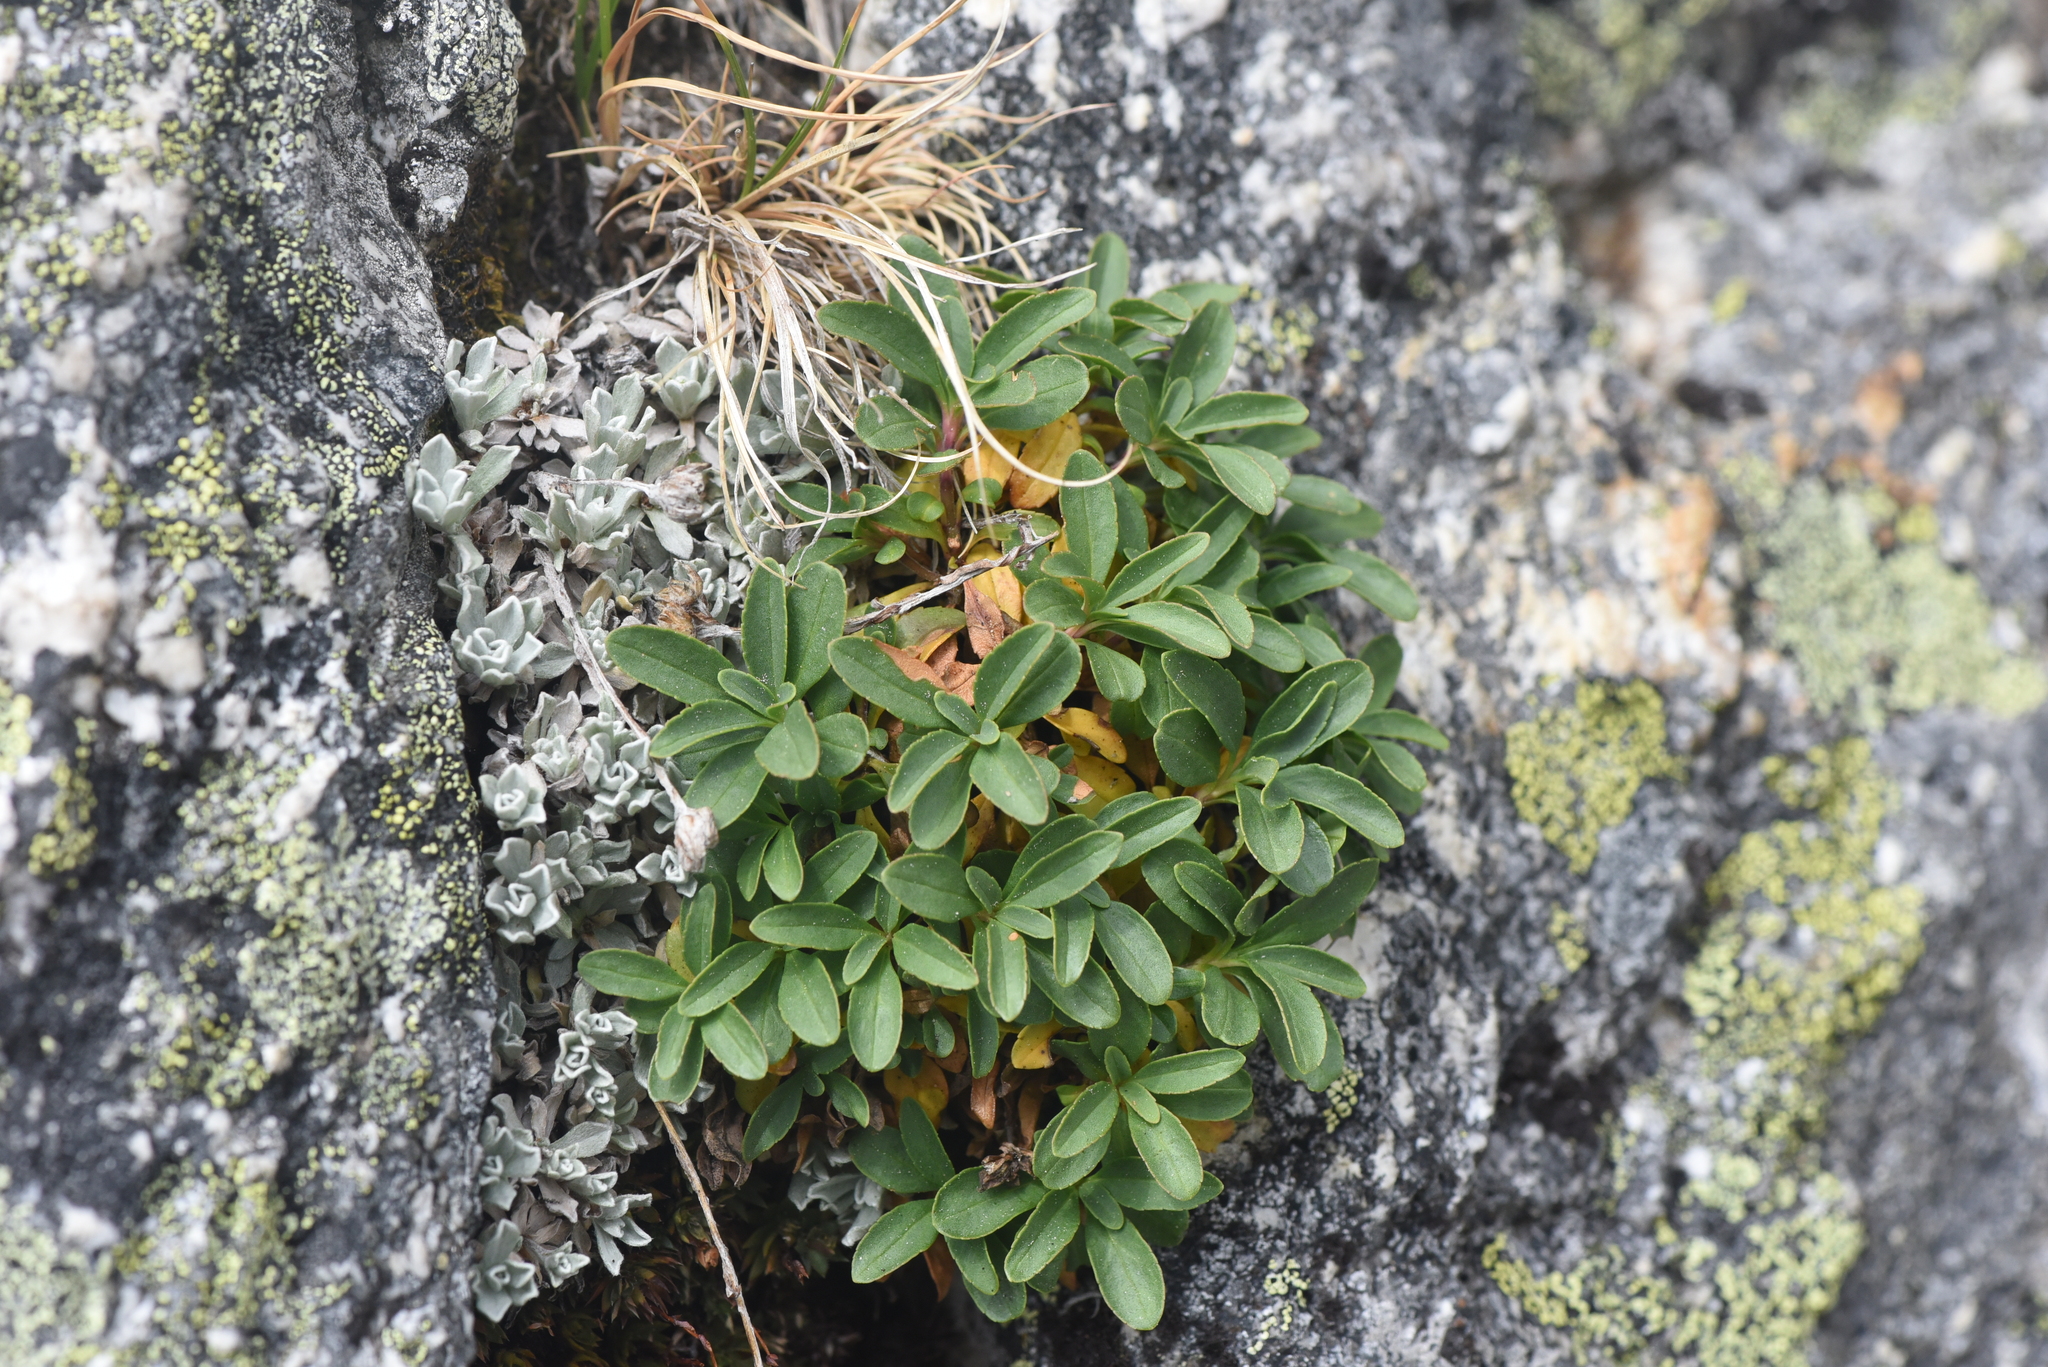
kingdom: Plantae
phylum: Tracheophyta
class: Magnoliopsida
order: Lamiales
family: Plantaginaceae
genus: Penstemon
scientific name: Penstemon ellipticus
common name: Alpine beardtongue
